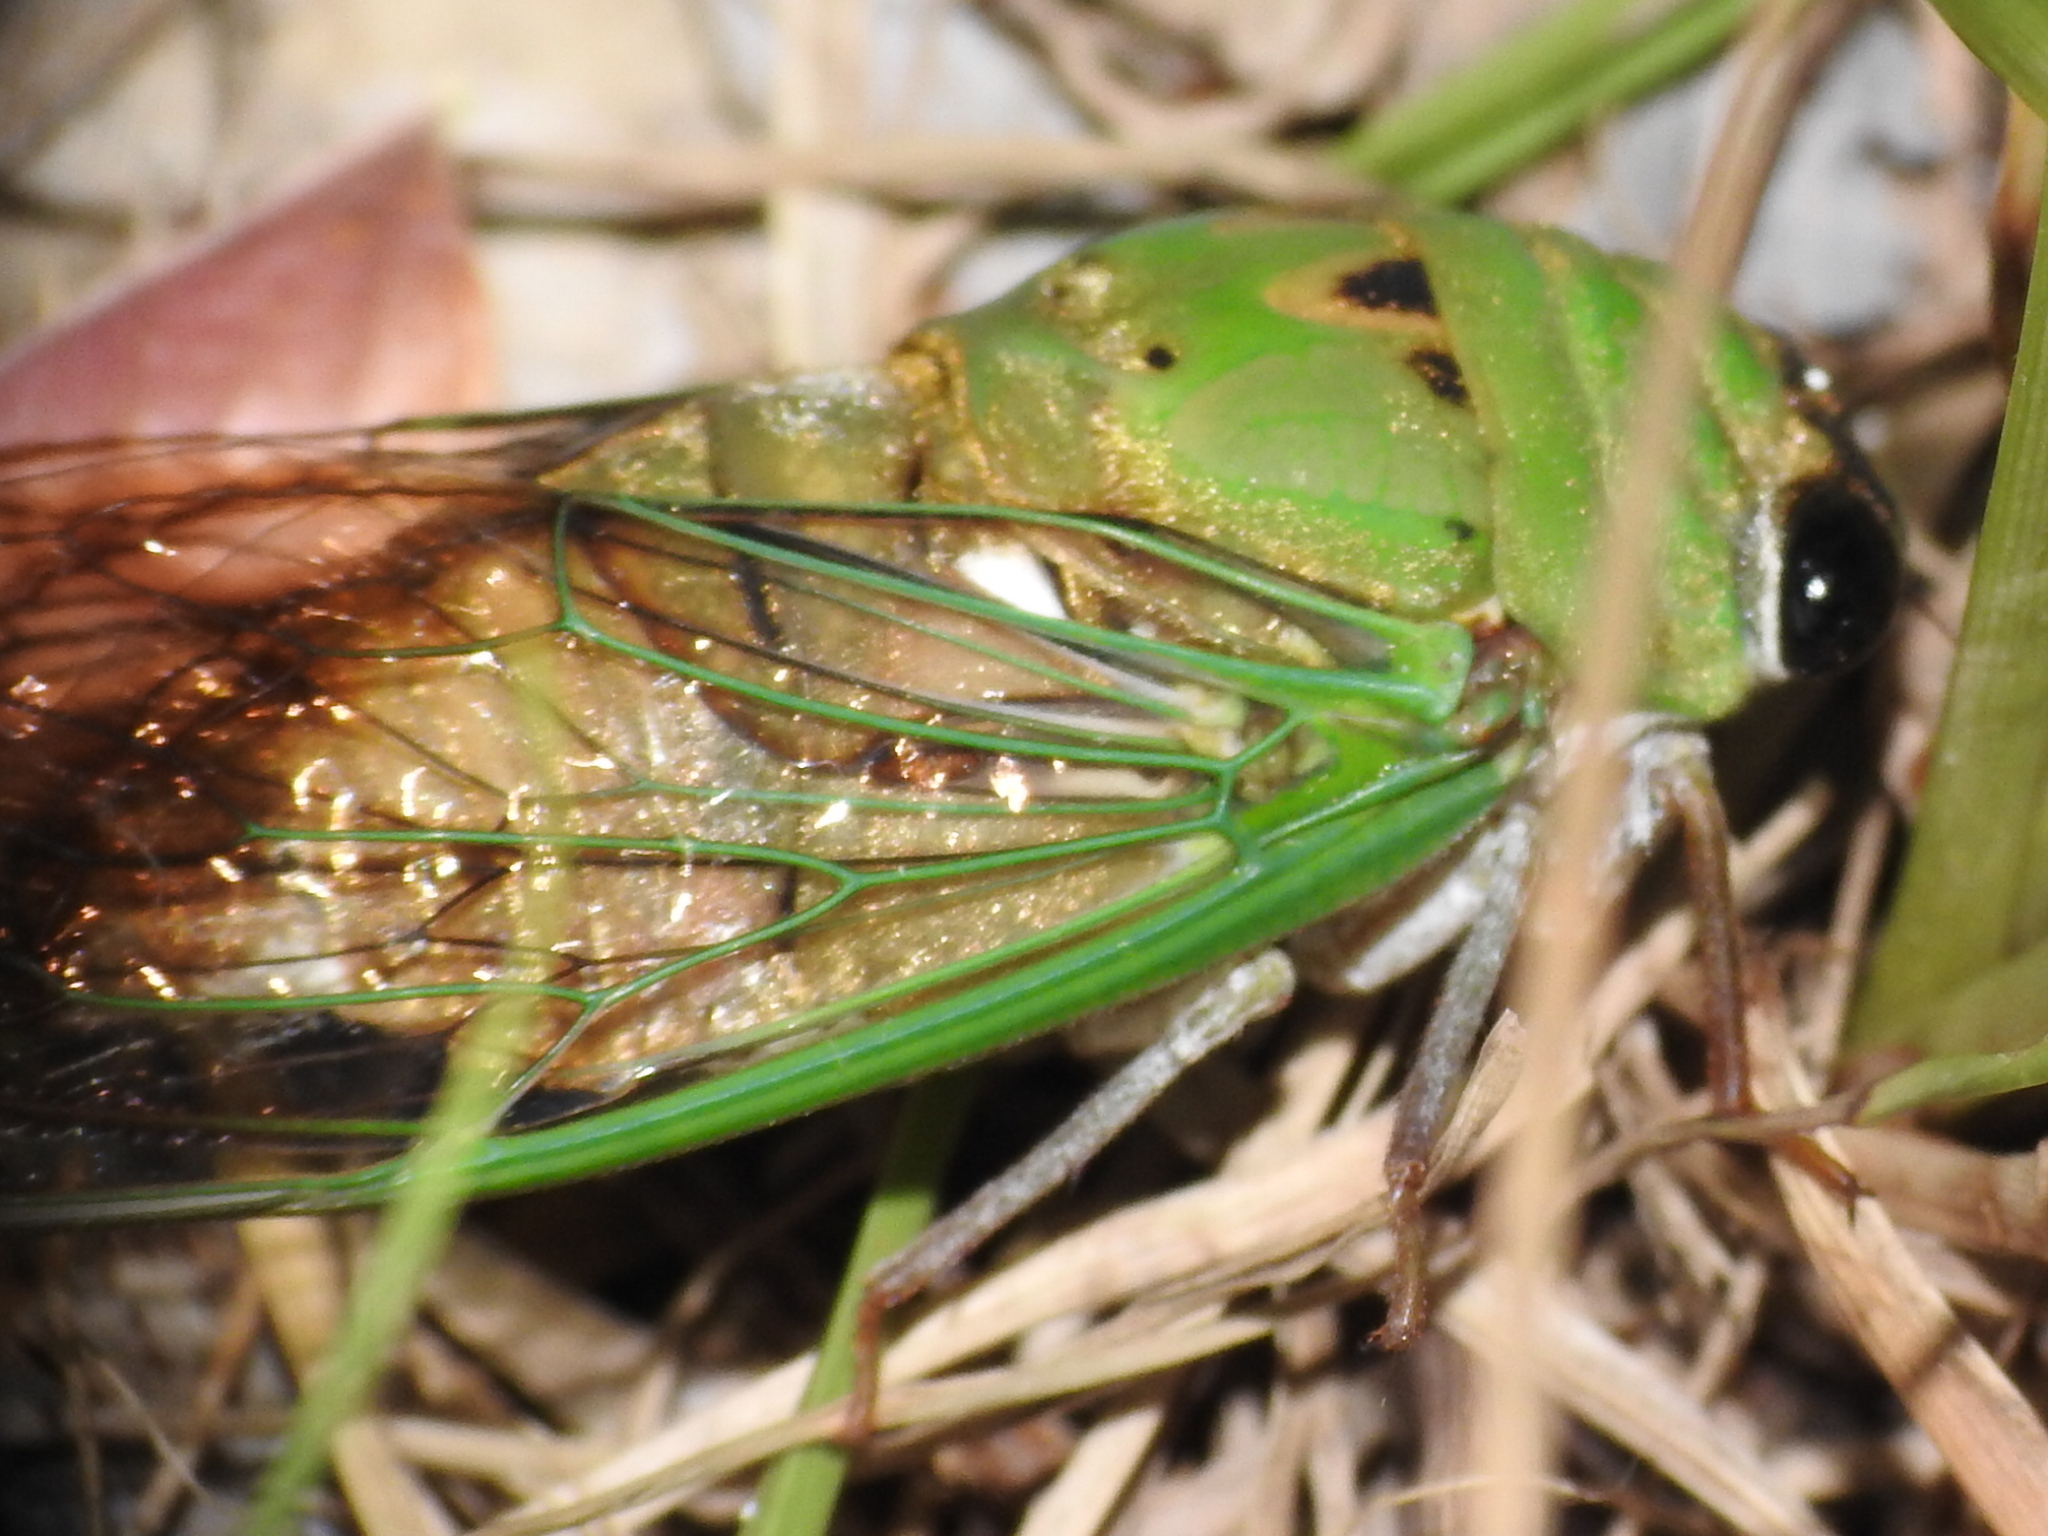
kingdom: Animalia
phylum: Arthropoda
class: Insecta
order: Hemiptera
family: Cicadidae
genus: Neotibicen
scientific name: Neotibicen superbus
